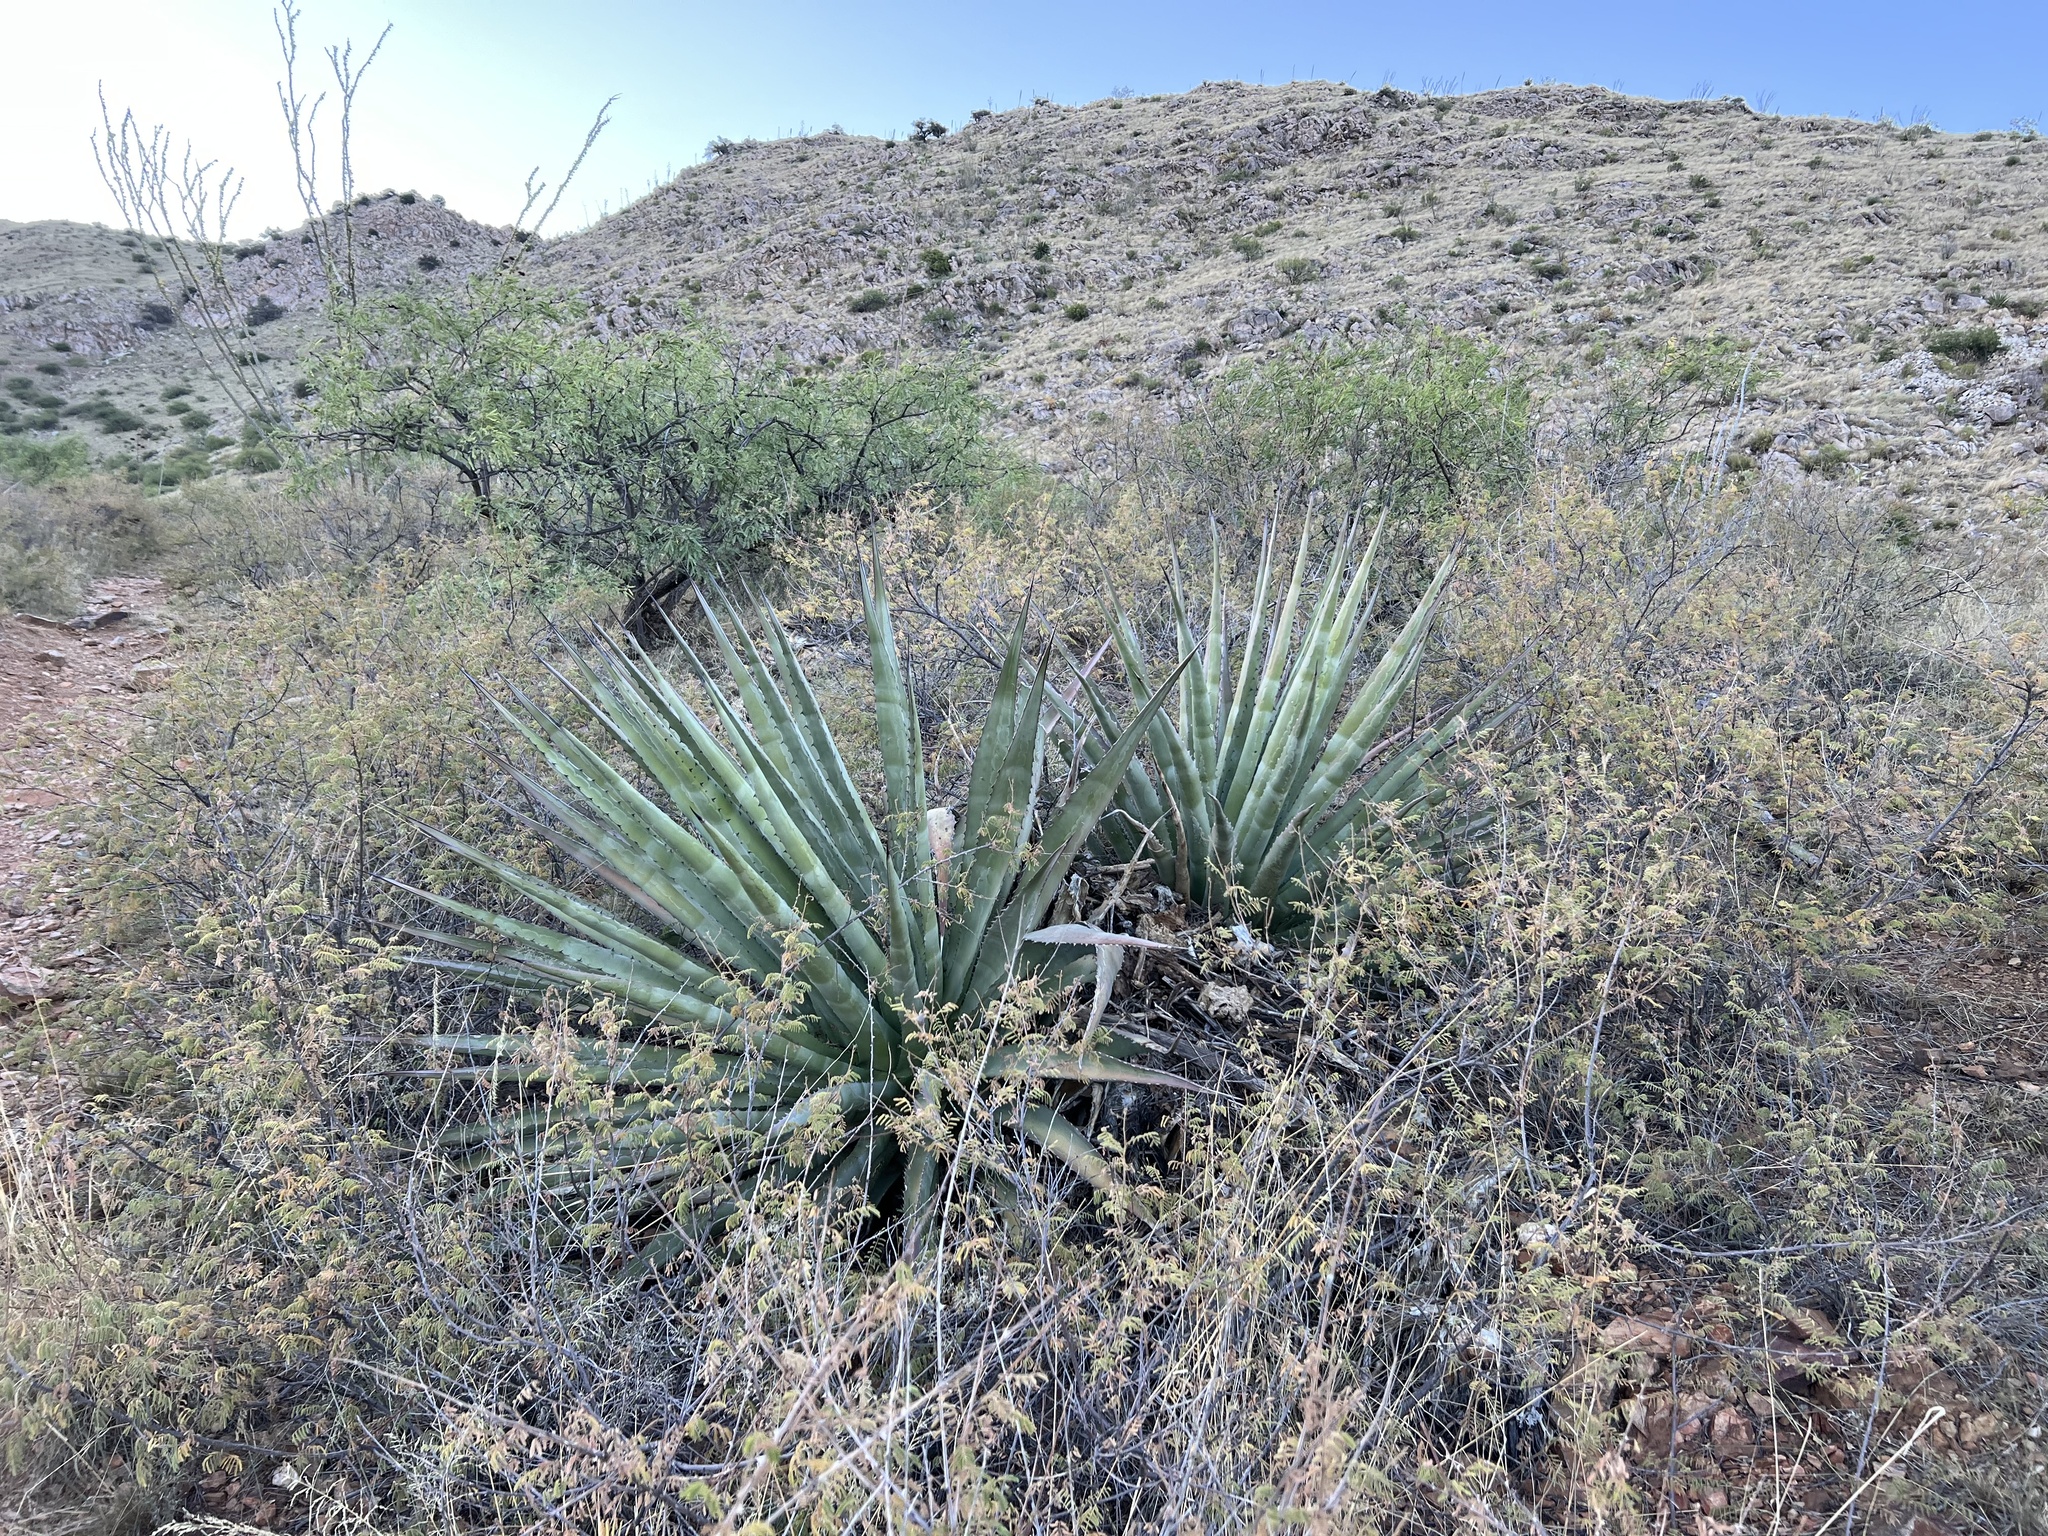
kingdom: Plantae
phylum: Tracheophyta
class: Liliopsida
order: Asparagales
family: Asparagaceae
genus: Agave
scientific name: Agave palmeri
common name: Palmer agave
